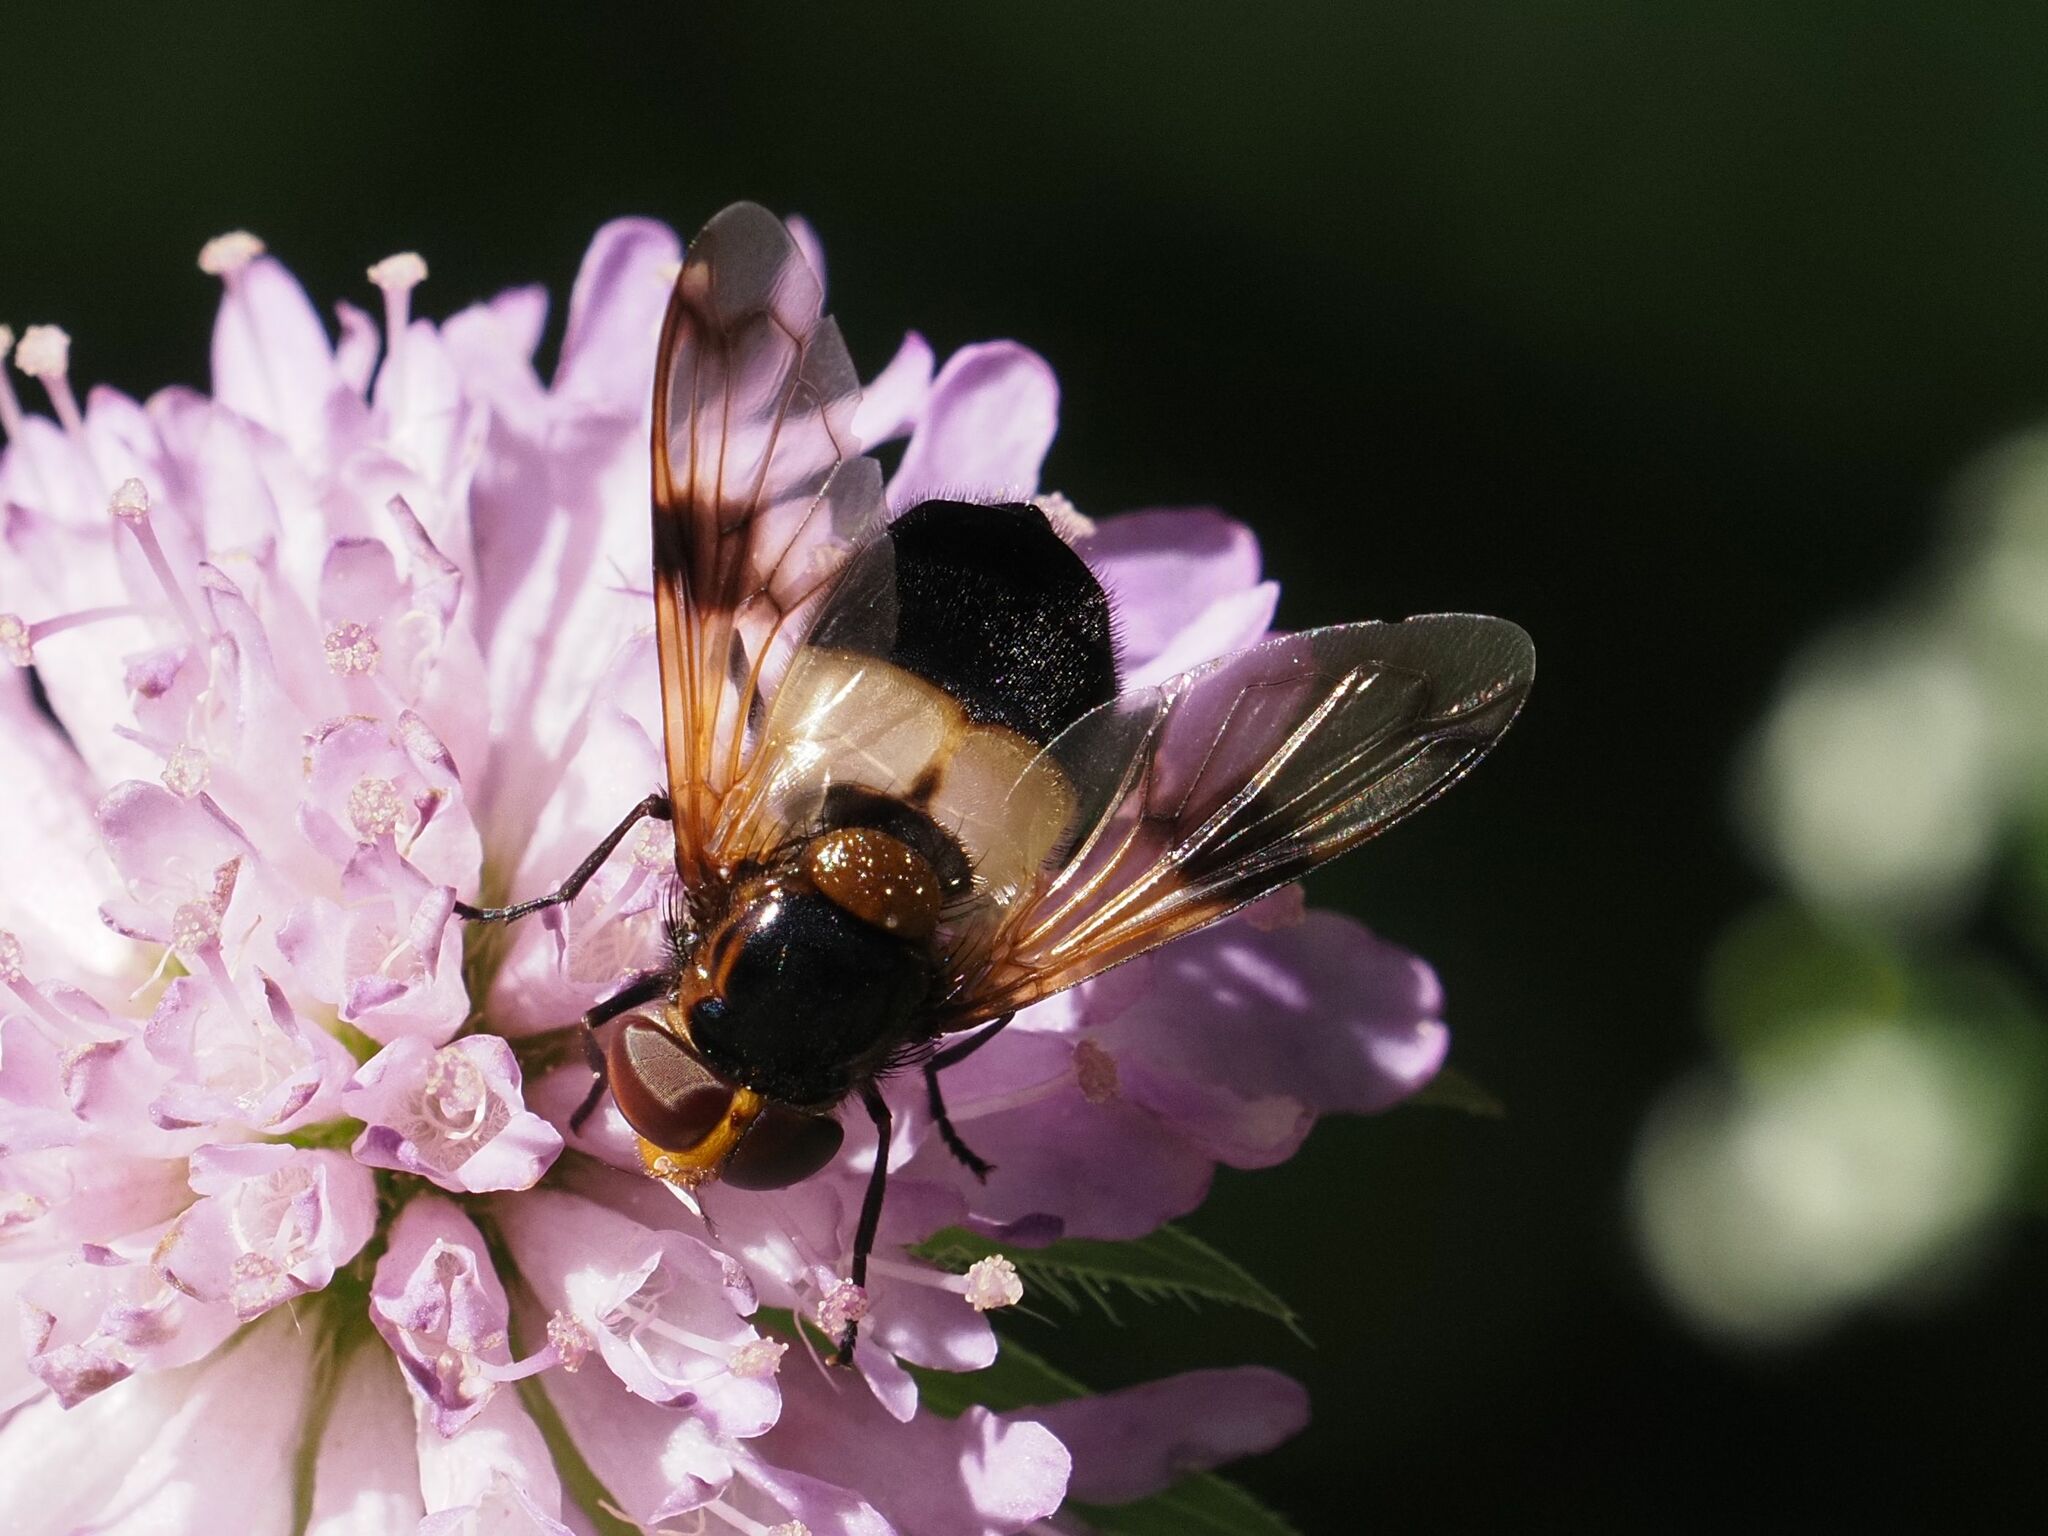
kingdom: Animalia
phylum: Arthropoda
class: Insecta
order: Diptera
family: Syrphidae
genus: Volucella
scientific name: Volucella pellucens
